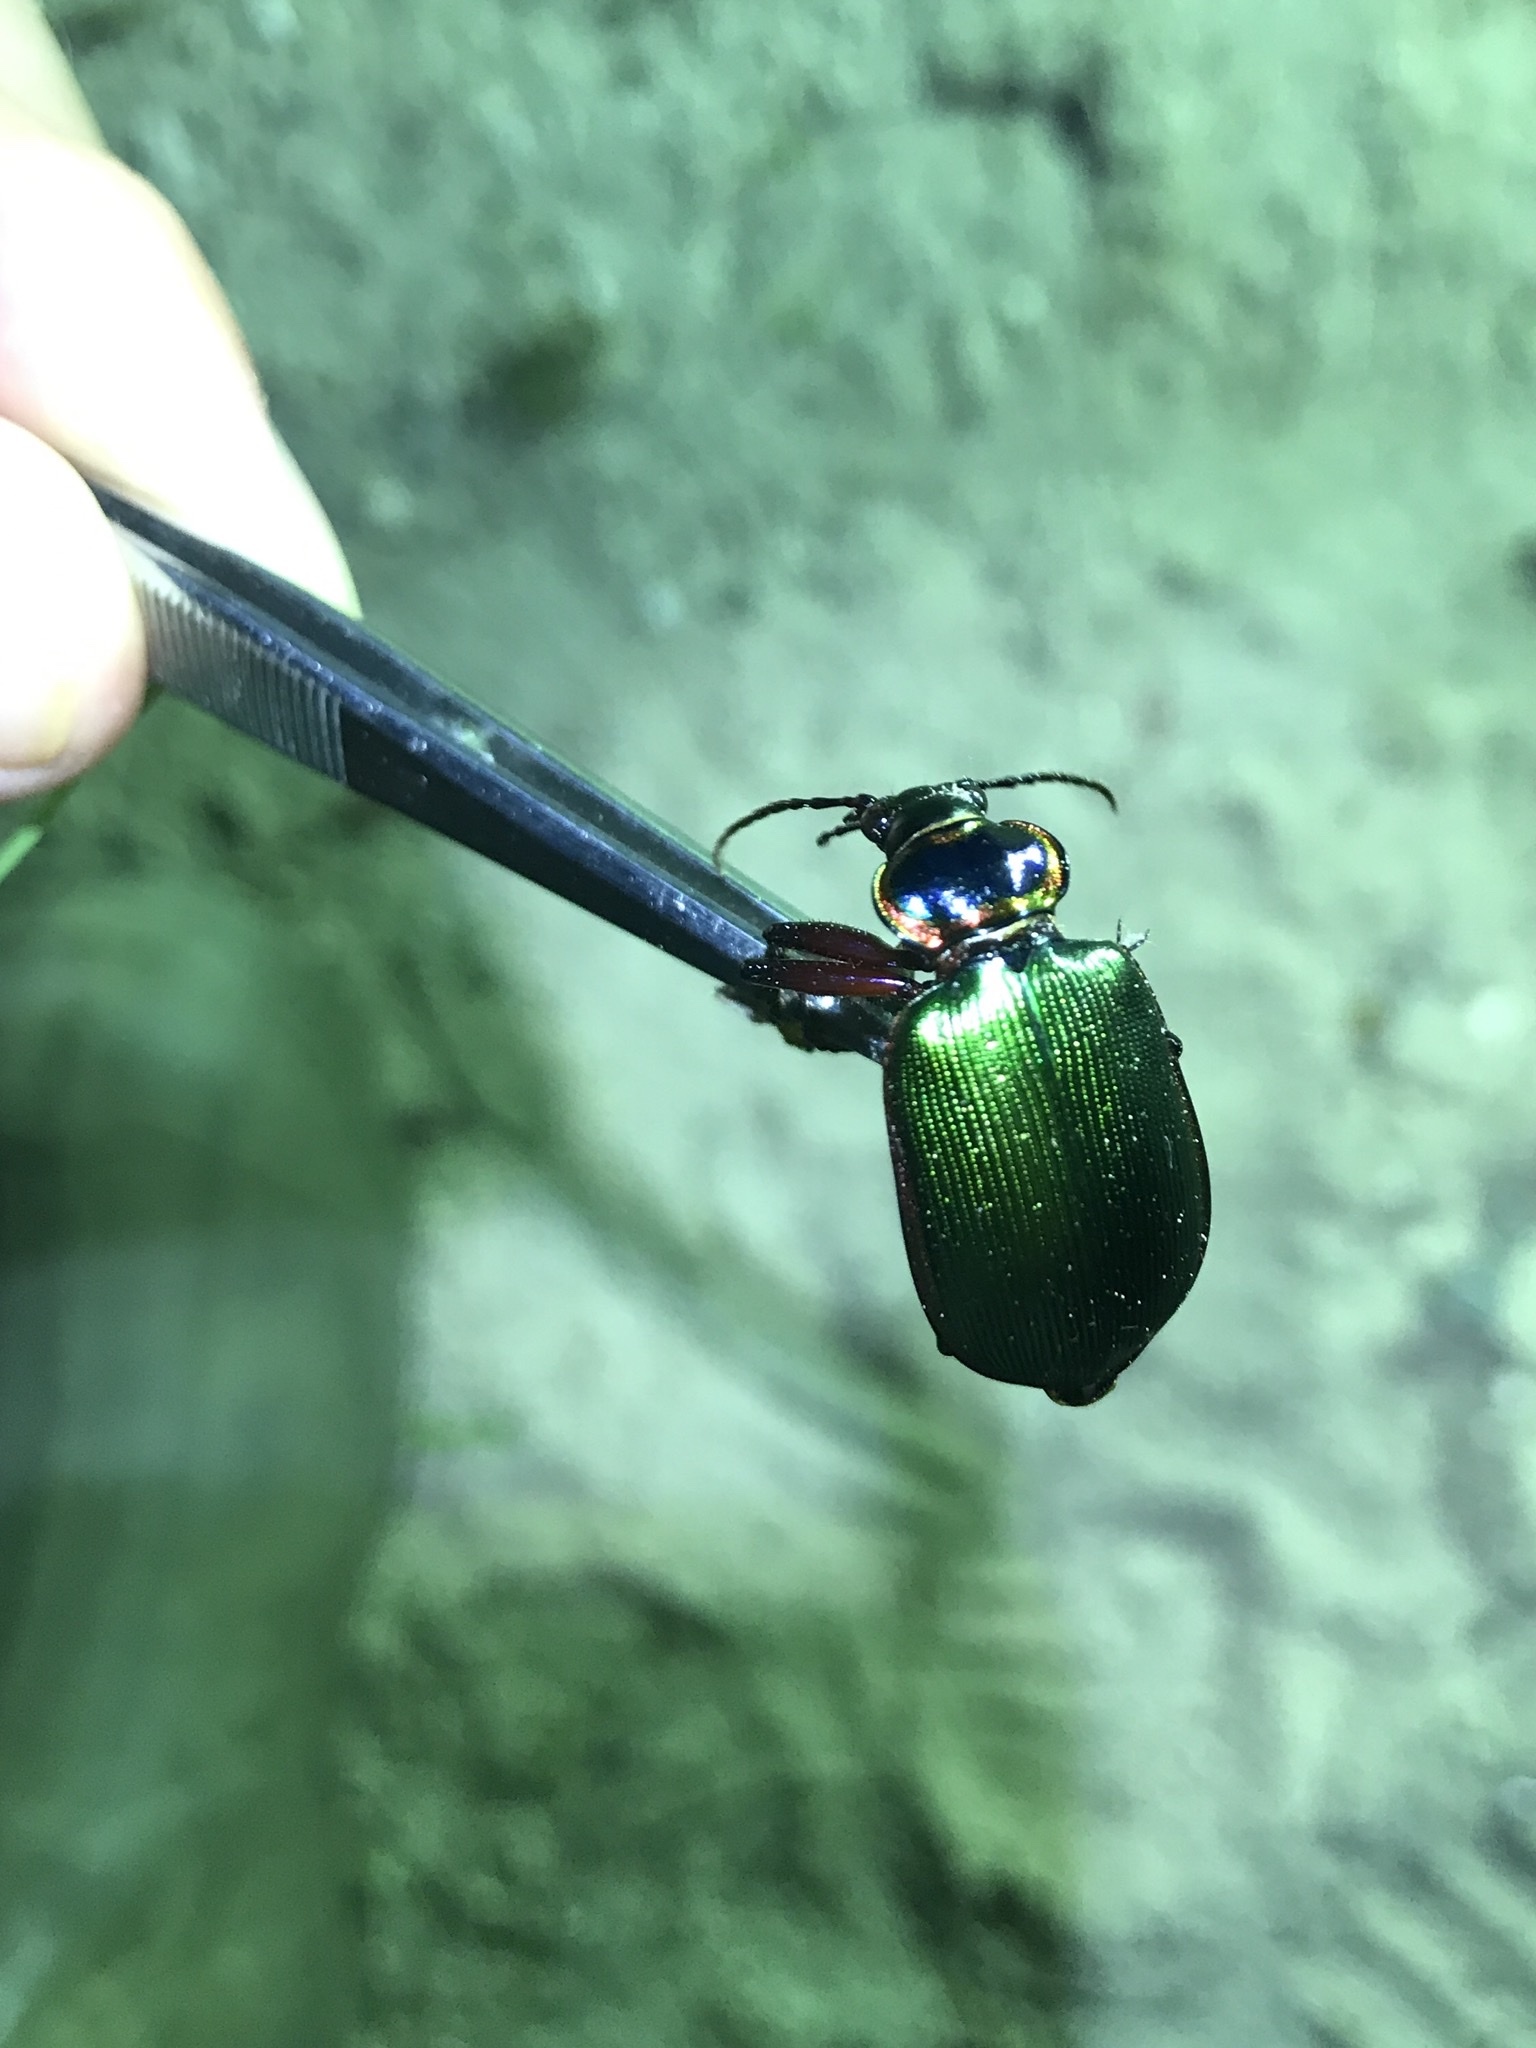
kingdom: Animalia
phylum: Arthropoda
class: Insecta
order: Coleoptera
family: Carabidae
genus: Calosoma
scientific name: Calosoma scrutator
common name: Fiery searcher beetle
